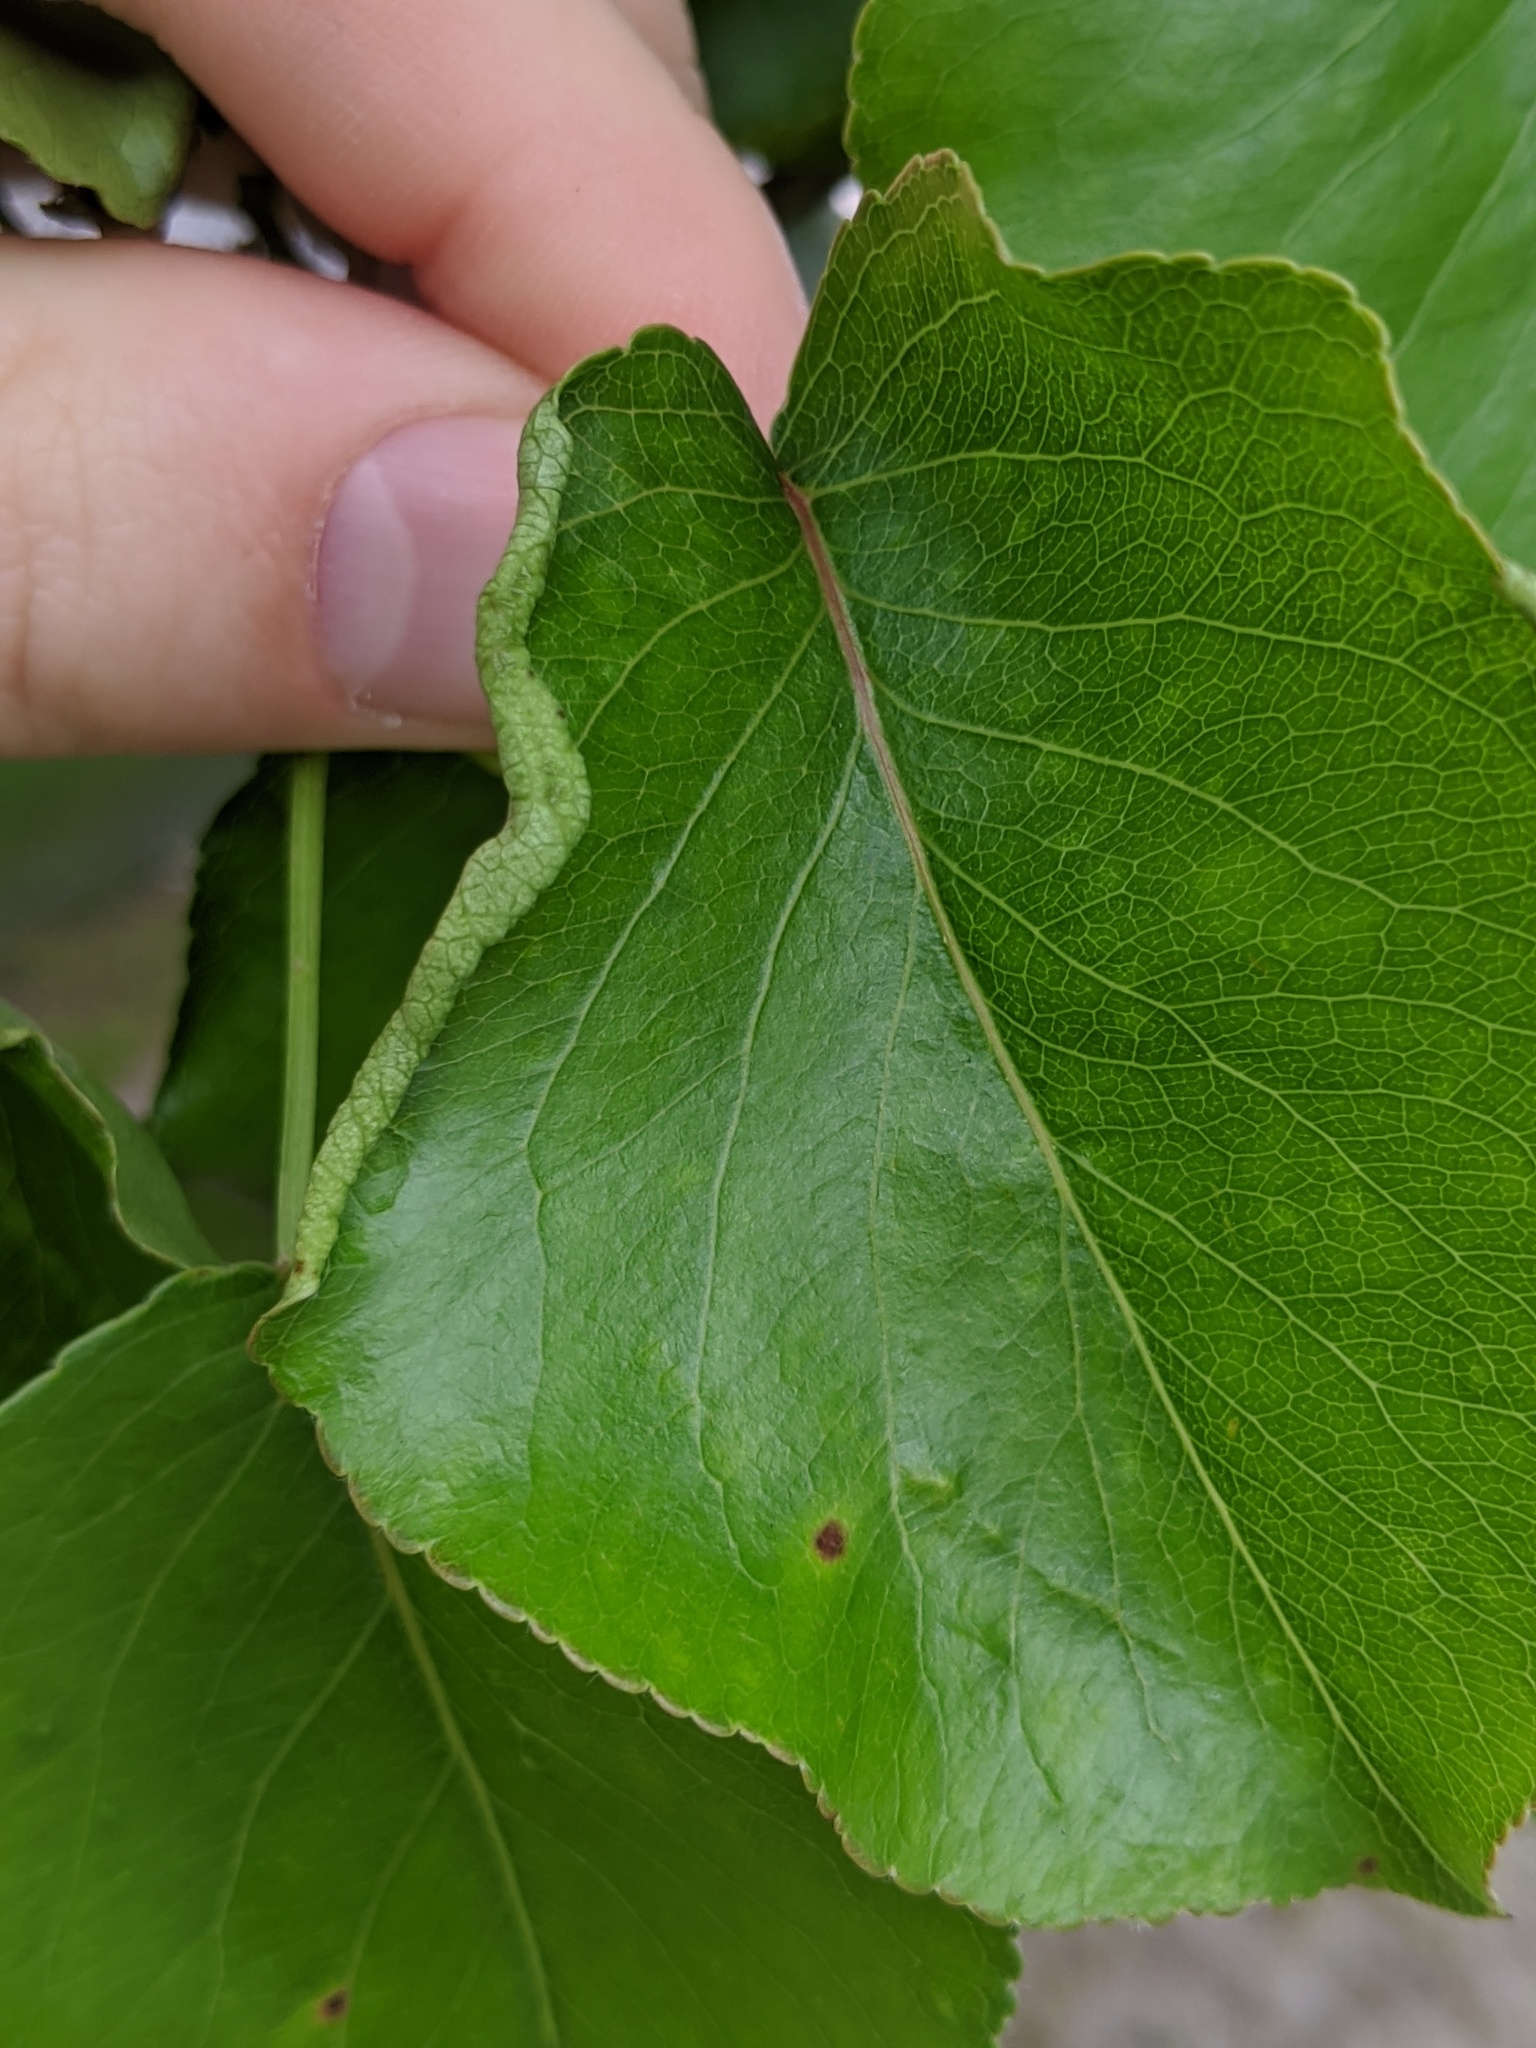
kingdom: Animalia
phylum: Arthropoda
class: Arachnida
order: Trombidiformes
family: Eriophyidae
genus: Eriophyes
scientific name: Eriophyes marginemtorquens
